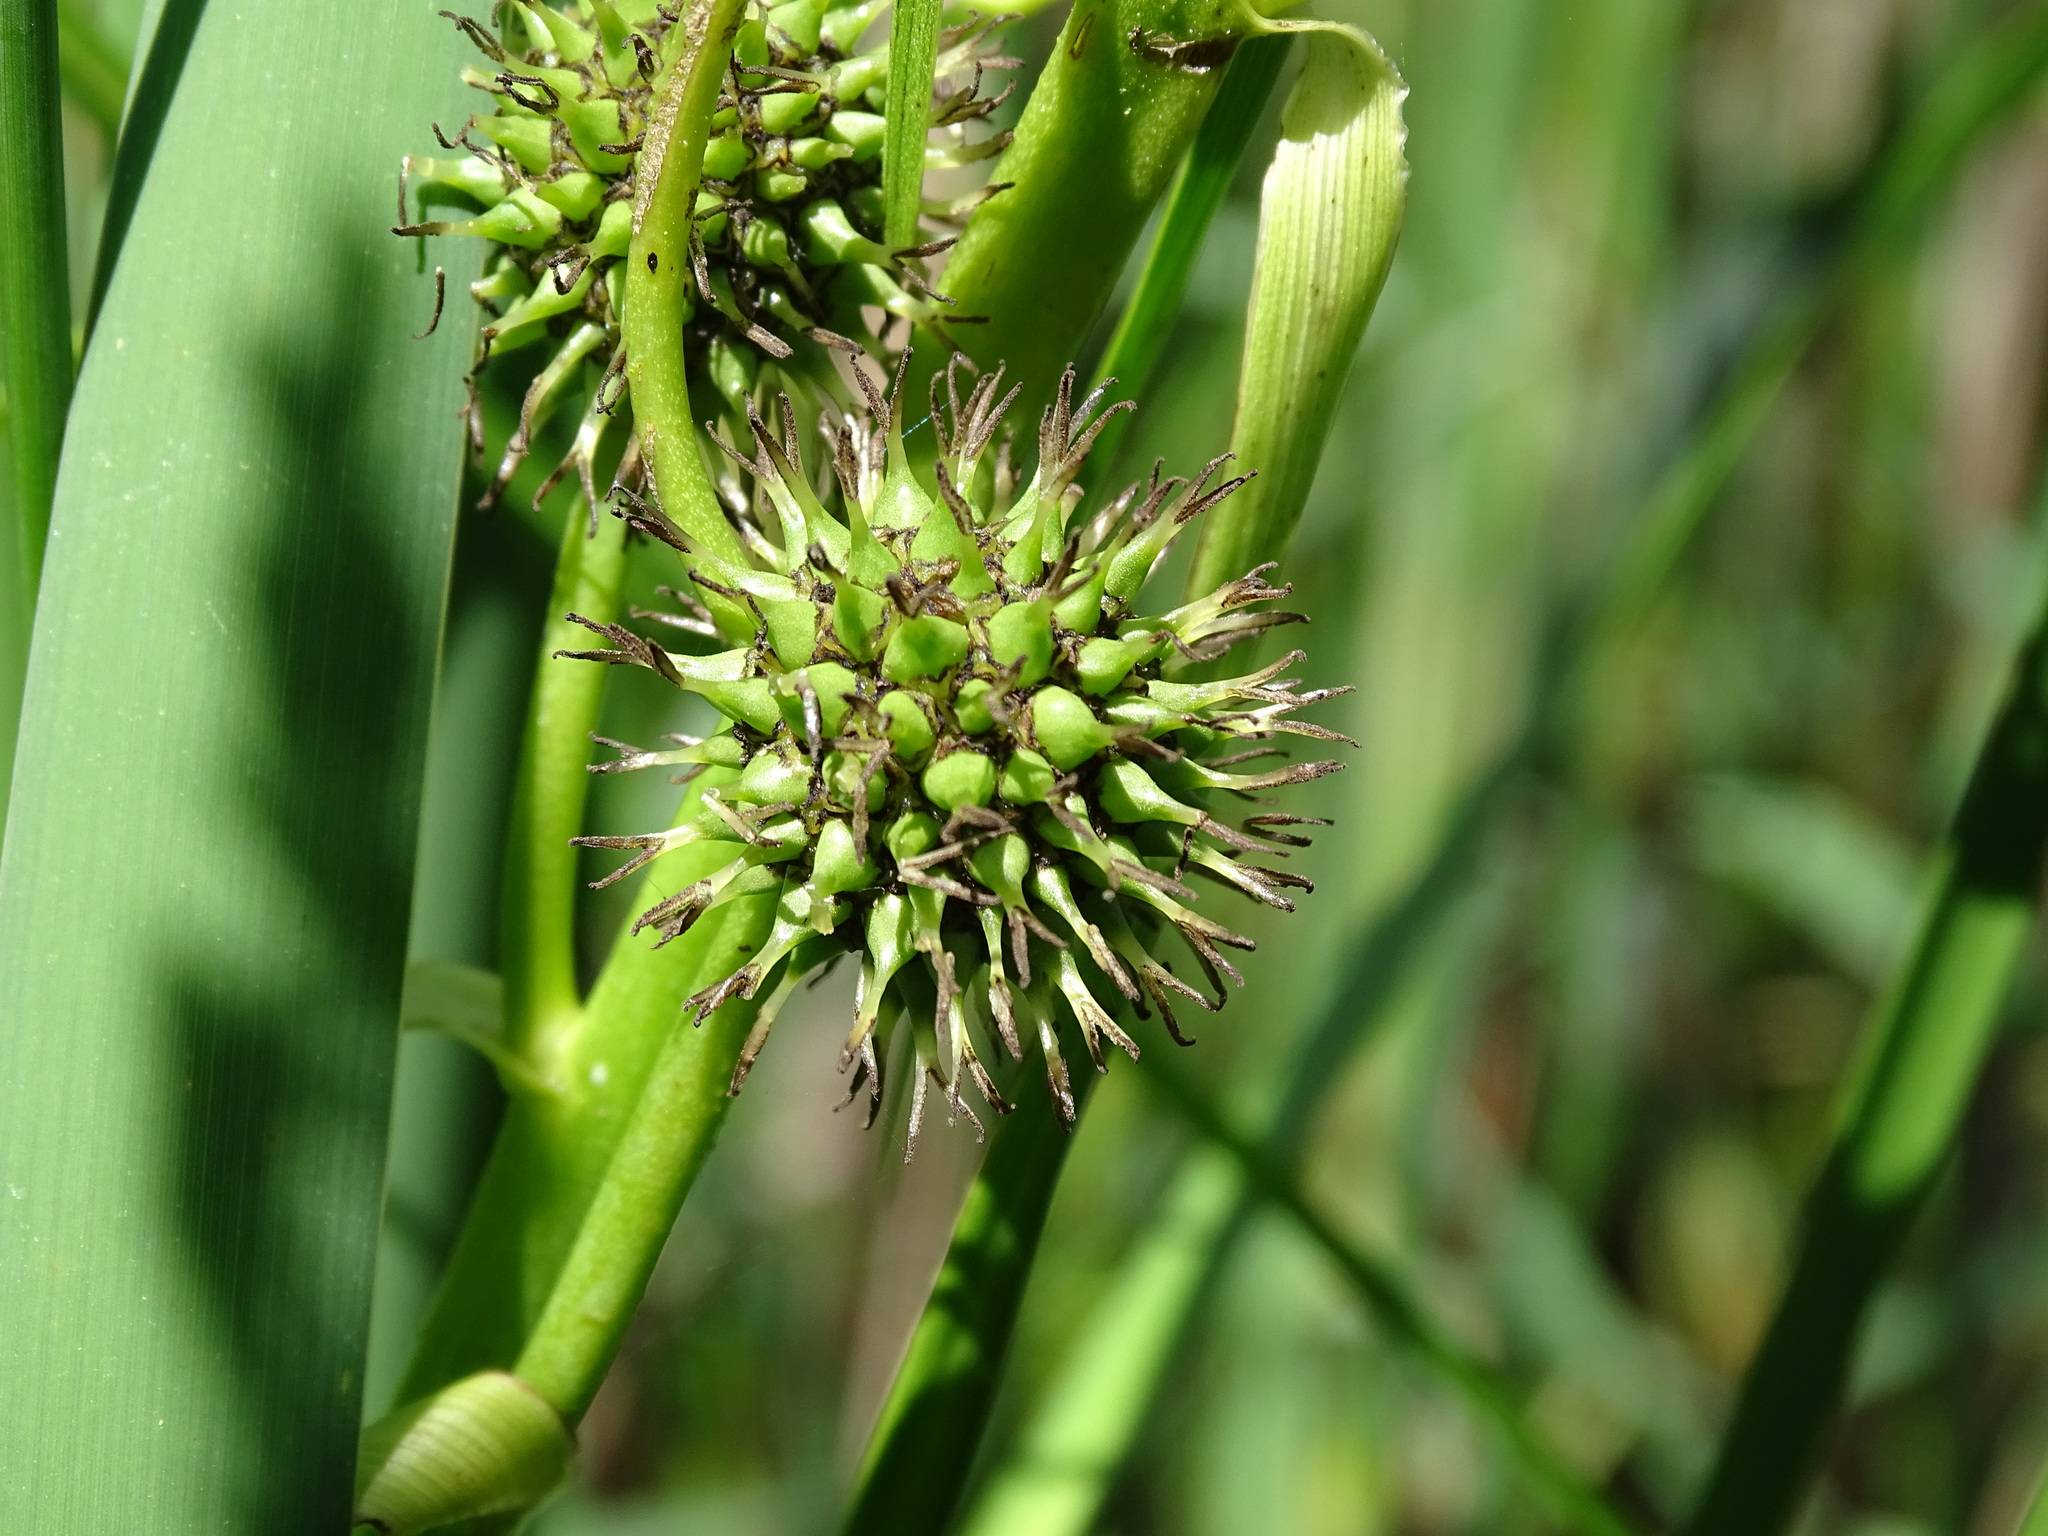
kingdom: Plantae
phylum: Tracheophyta
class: Liliopsida
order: Poales
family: Typhaceae
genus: Sparganium
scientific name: Sparganium eurycarpum
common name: Broad-fruited burreed
